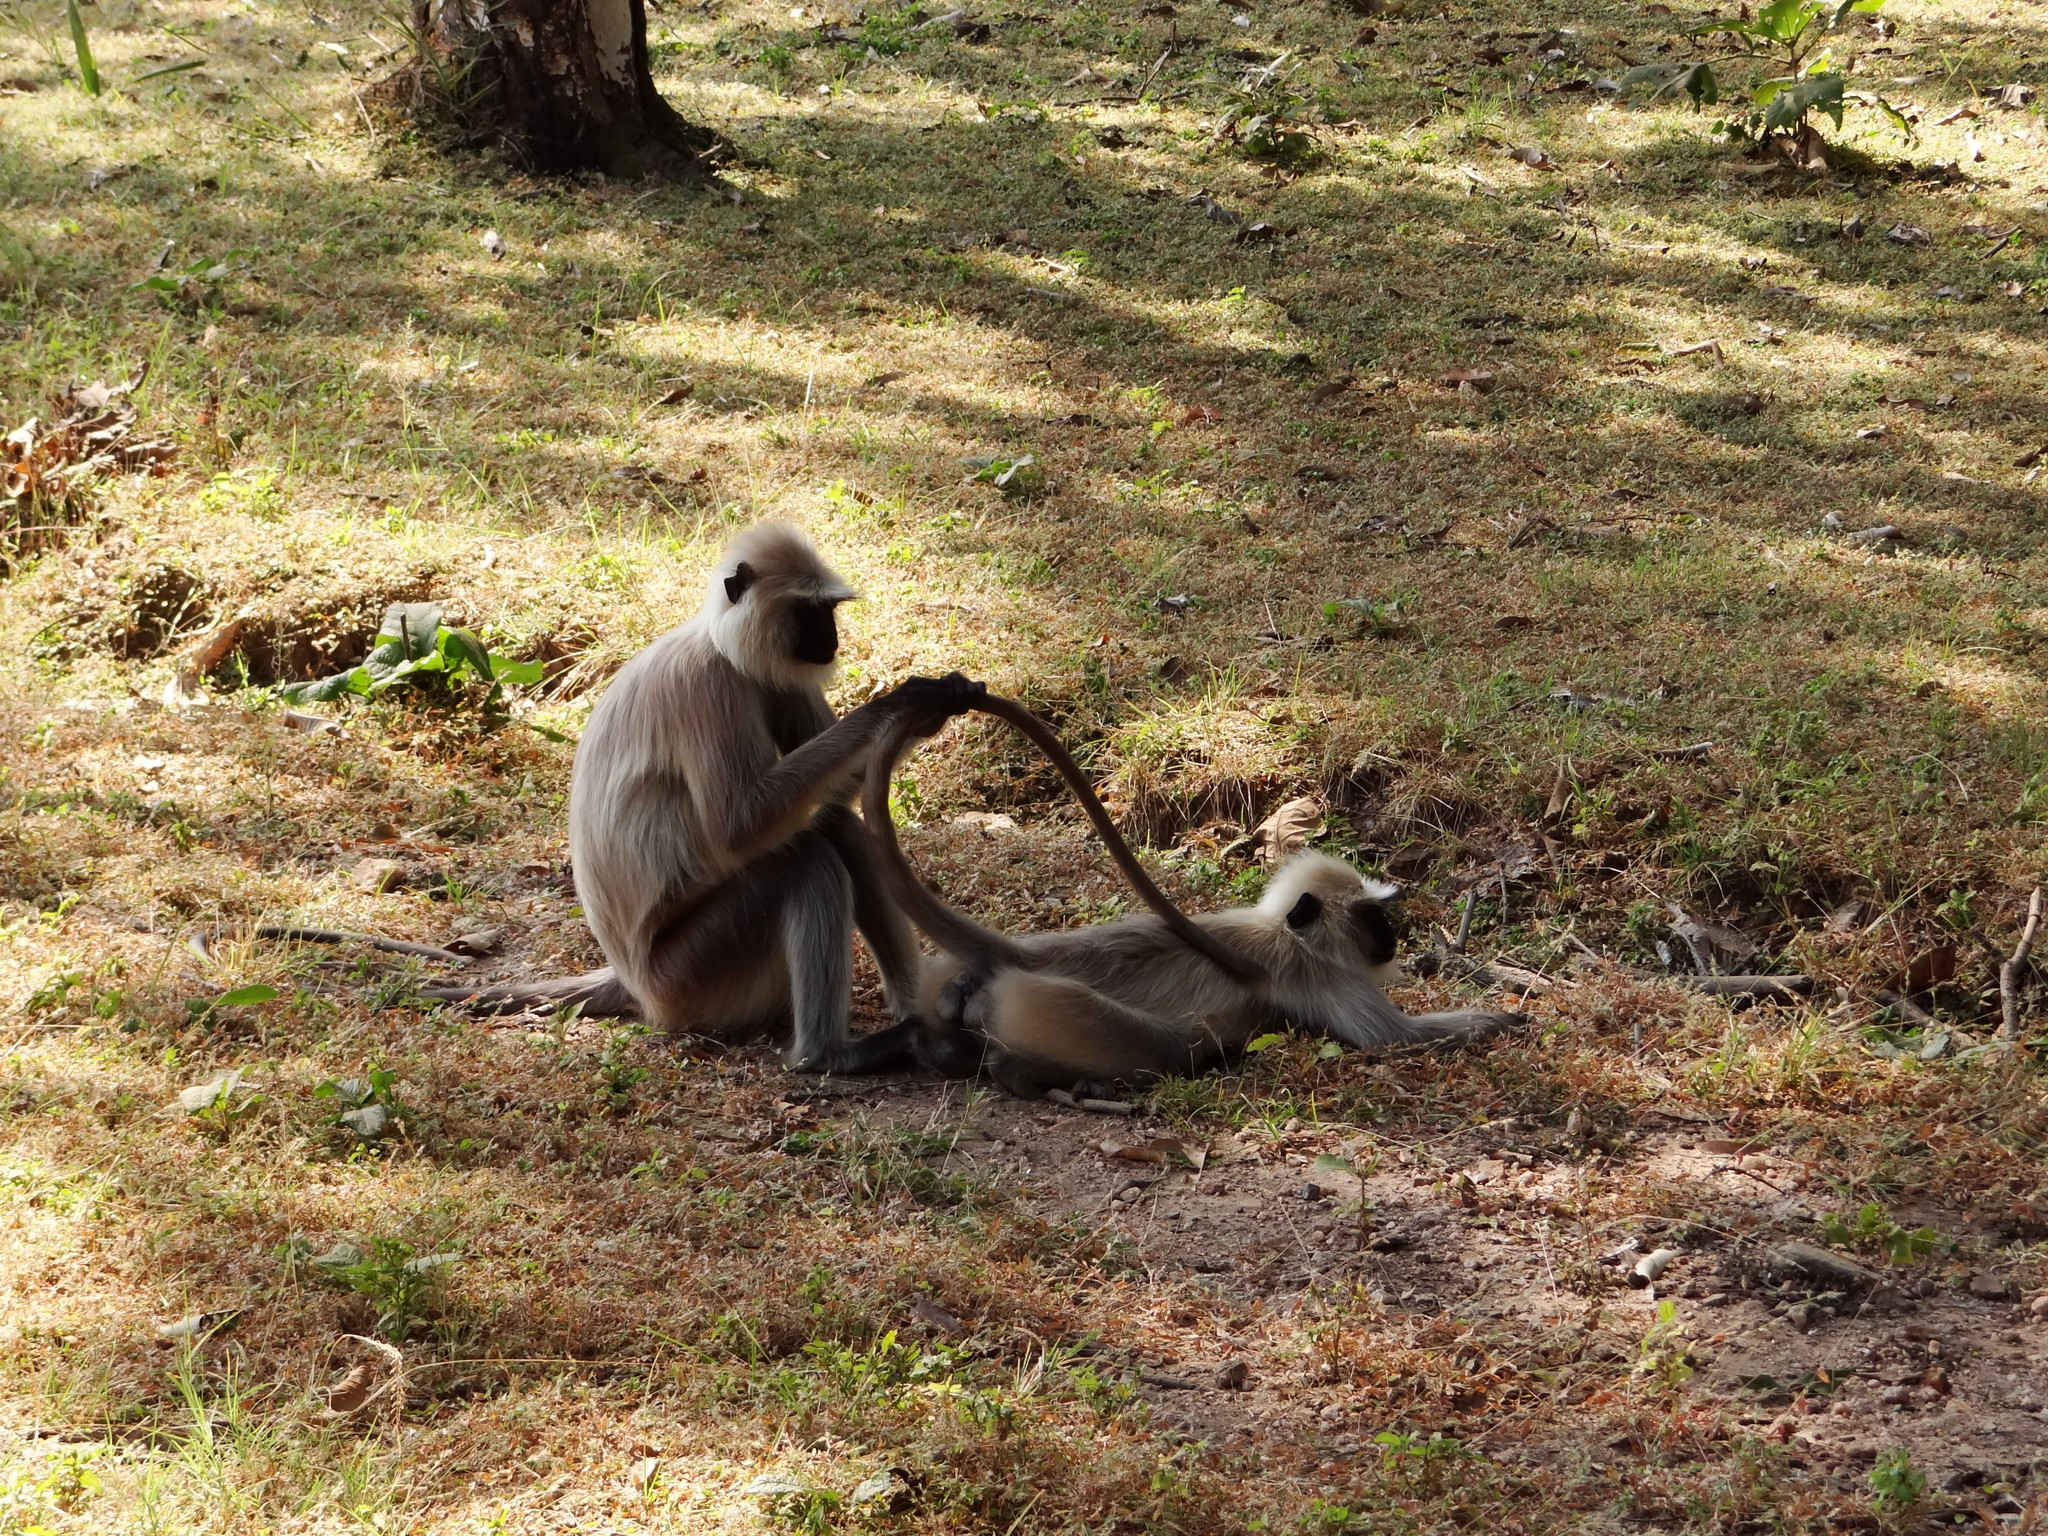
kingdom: Animalia
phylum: Chordata
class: Mammalia
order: Primates
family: Cercopithecidae
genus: Semnopithecus
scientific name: Semnopithecus entellus
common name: Northern plains gray langur
